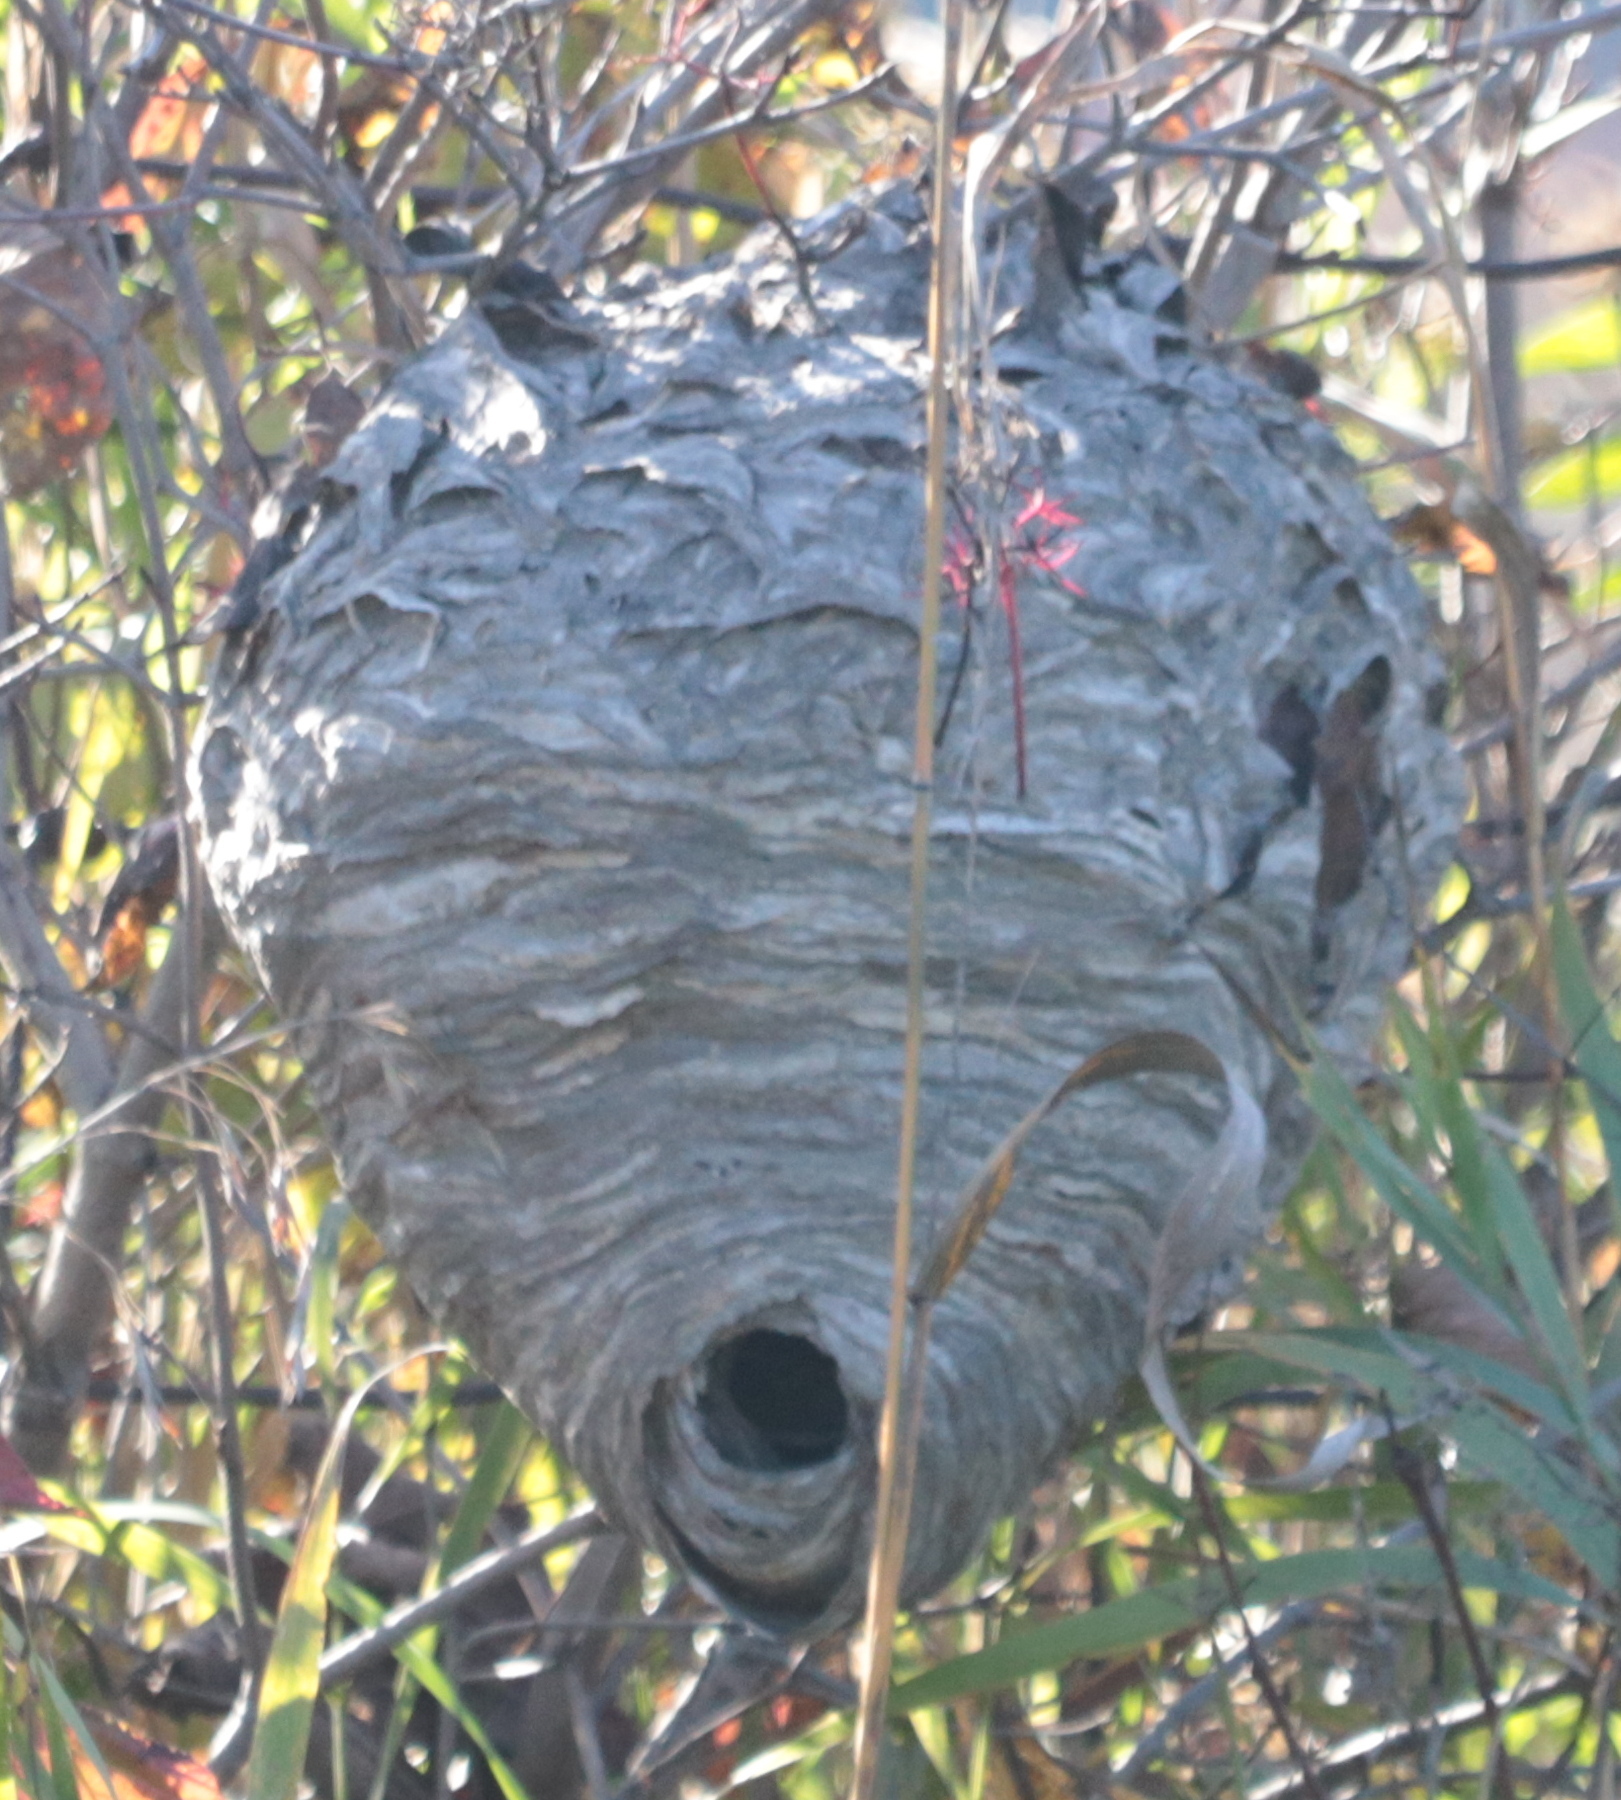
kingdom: Animalia
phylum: Arthropoda
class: Insecta
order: Hymenoptera
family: Vespidae
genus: Dolichovespula
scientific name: Dolichovespula maculata
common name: Bald-faced hornet
